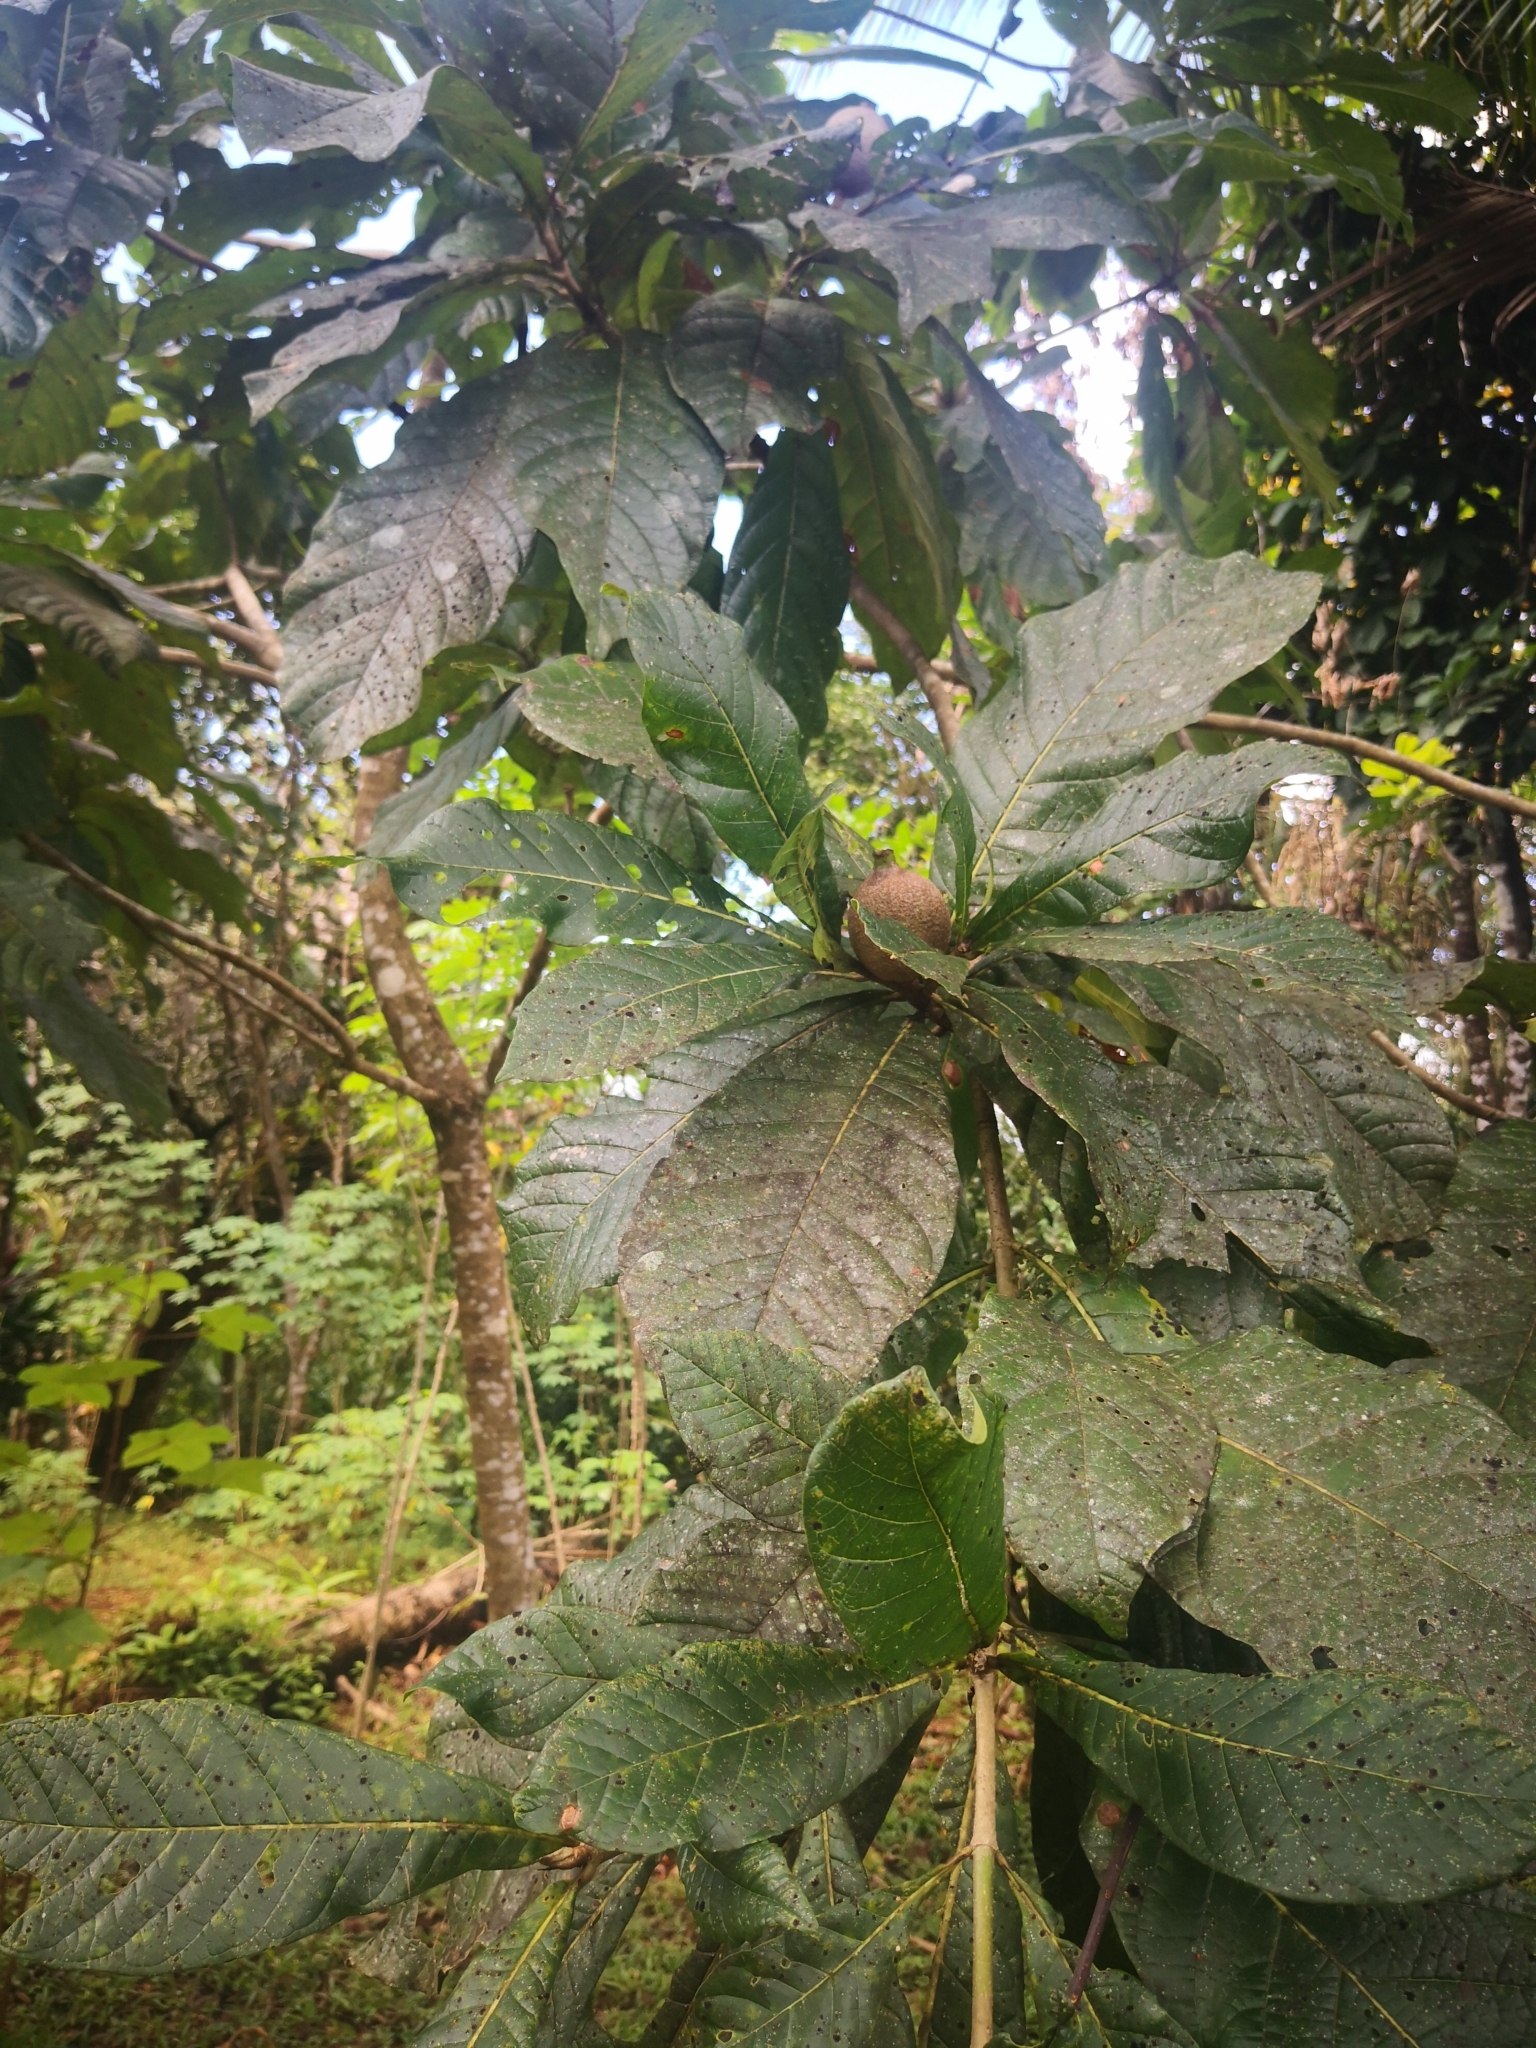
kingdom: Plantae
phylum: Tracheophyta
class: Magnoliopsida
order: Gentianales
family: Rubiaceae
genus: Genipa
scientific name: Genipa americana
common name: Genipap
